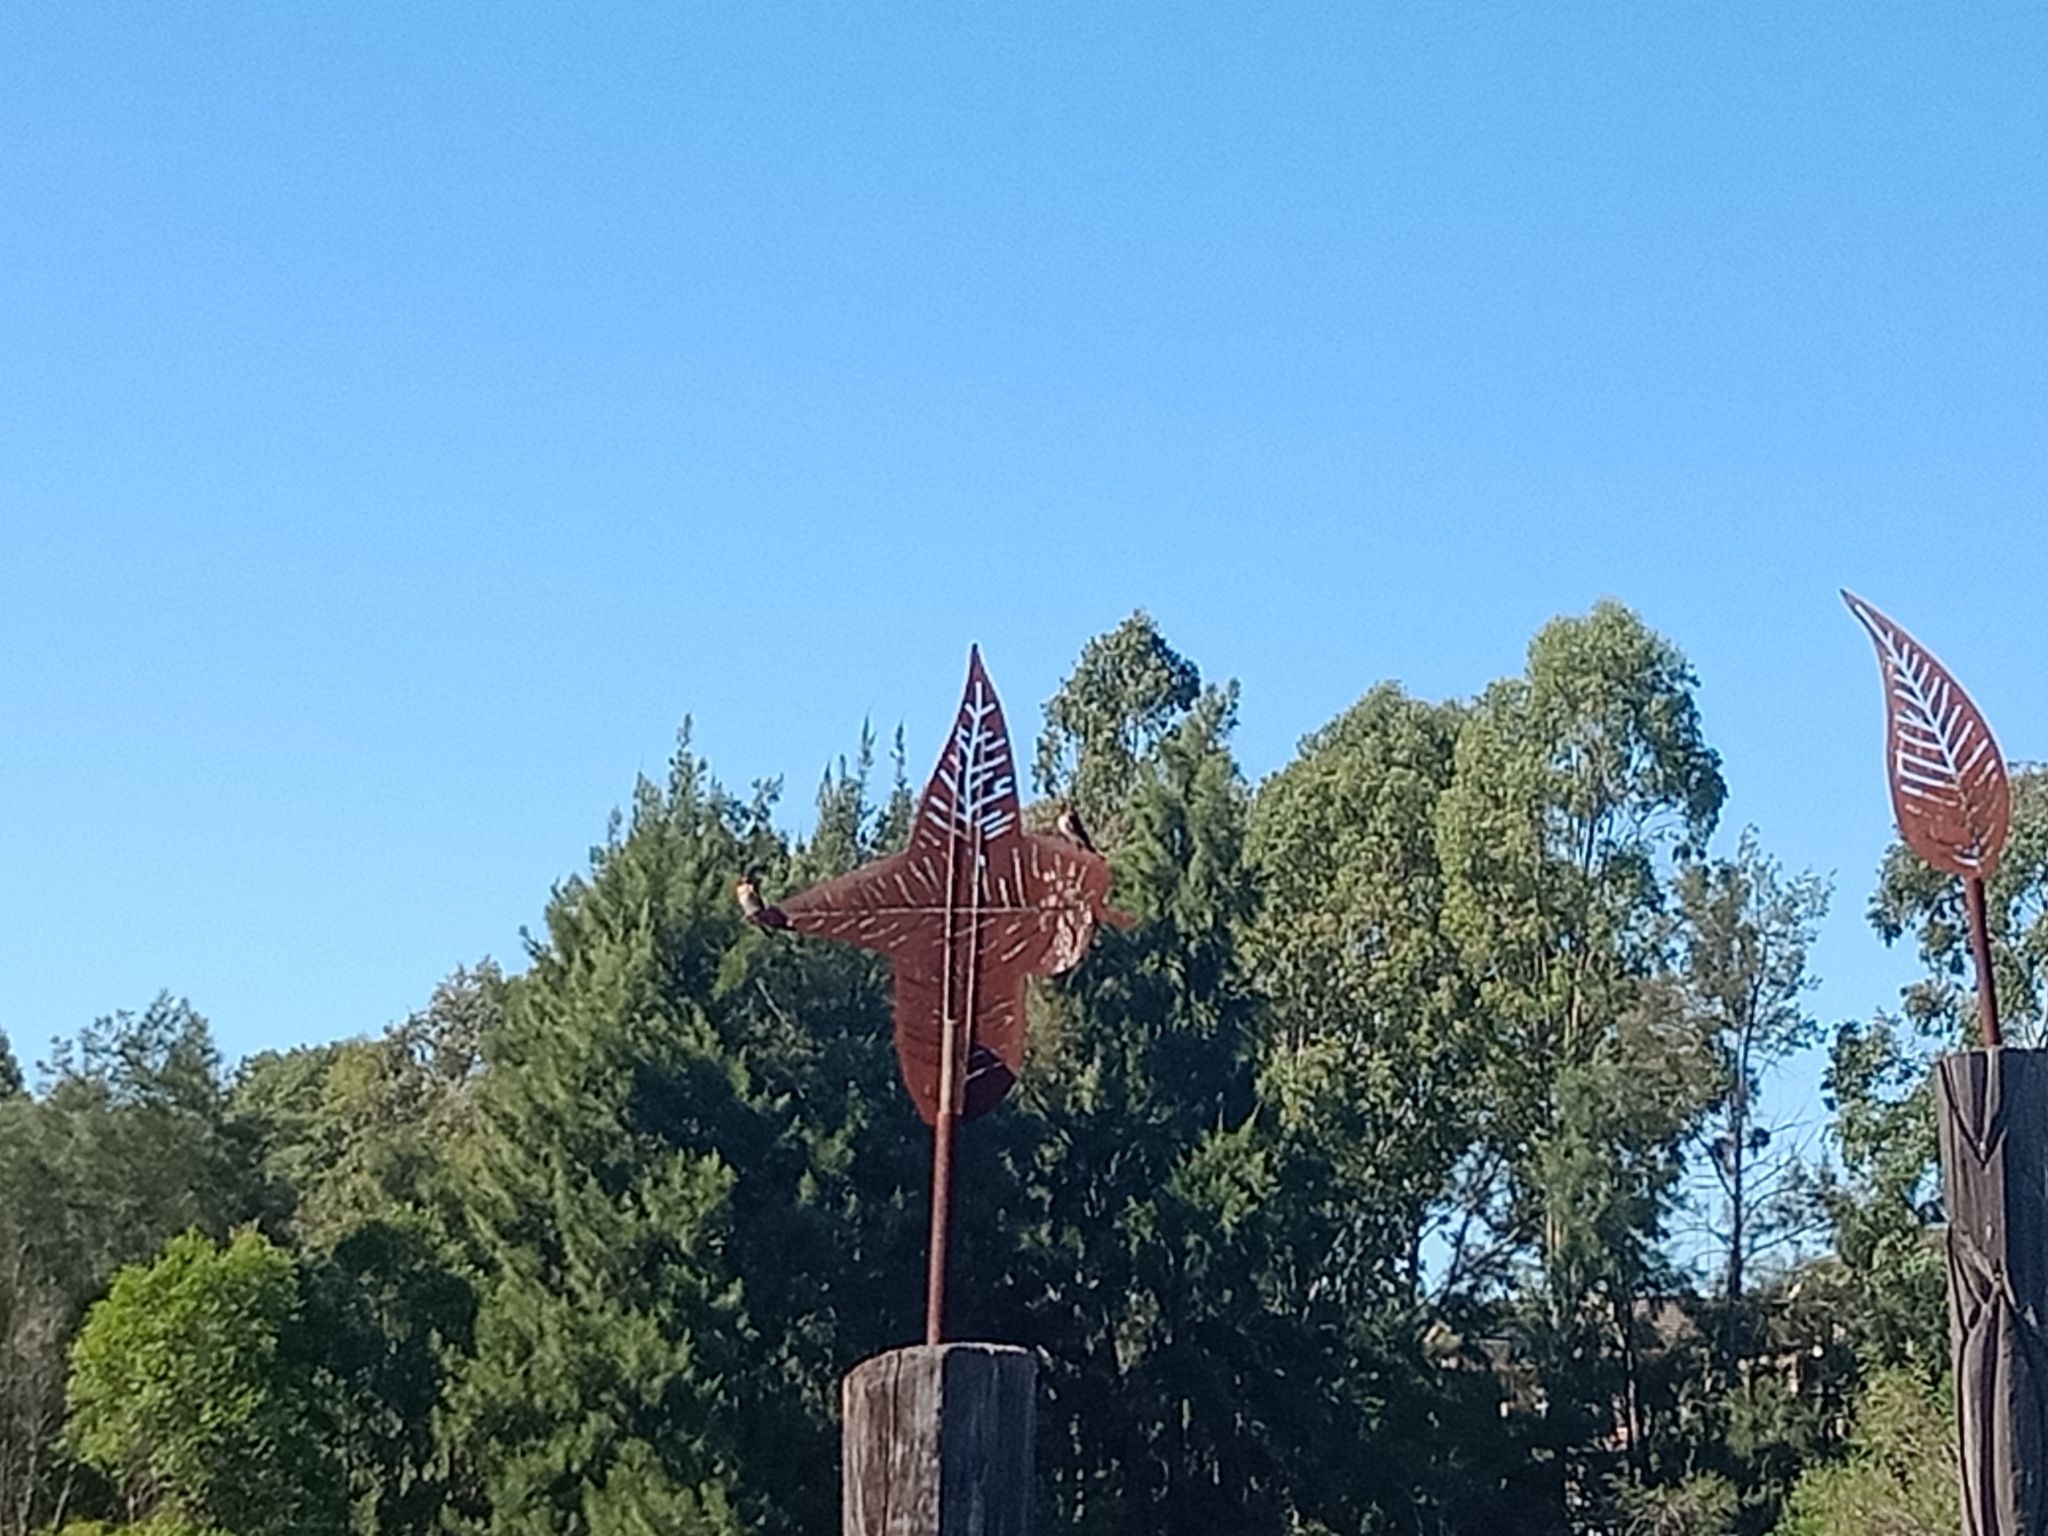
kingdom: Animalia
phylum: Chordata
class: Aves
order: Passeriformes
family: Hirundinidae
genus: Hirundo
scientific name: Hirundo neoxena
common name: Welcome swallow
